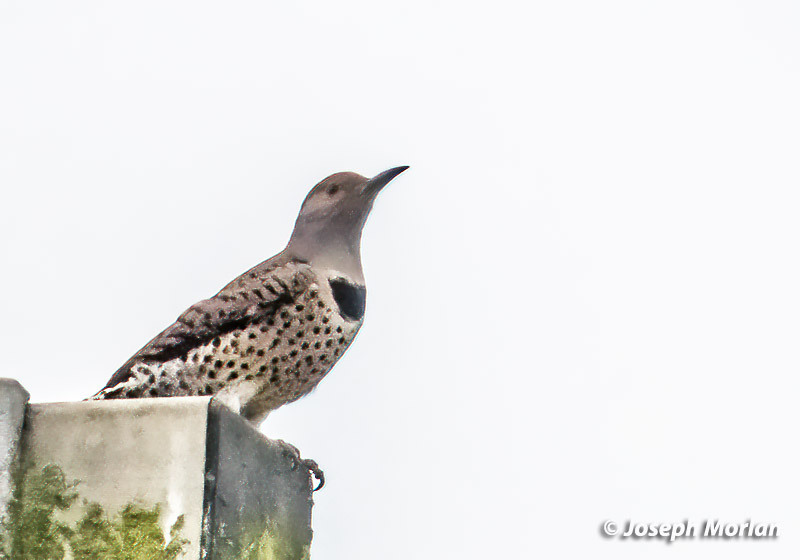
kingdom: Animalia
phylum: Chordata
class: Aves
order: Piciformes
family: Picidae
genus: Colaptes
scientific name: Colaptes auratus
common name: Northern flicker
